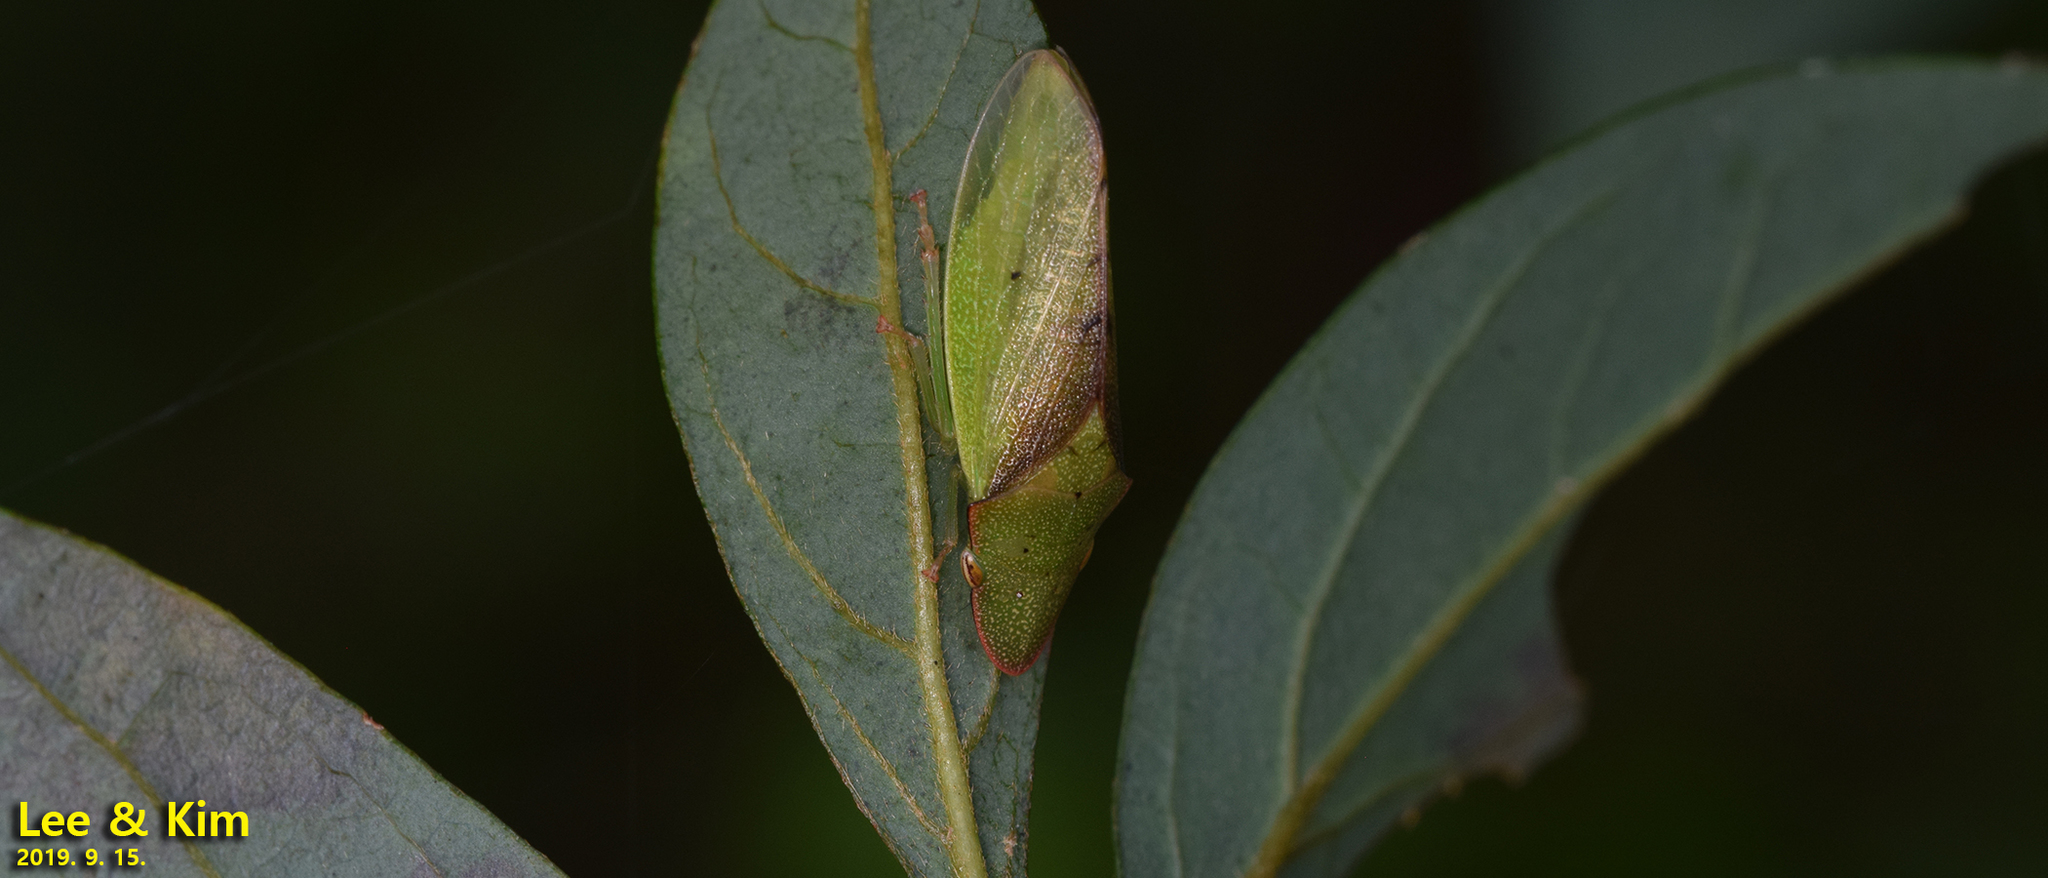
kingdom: Animalia
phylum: Arthropoda
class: Insecta
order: Hemiptera
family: Cicadellidae
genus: Neotituria
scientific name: Neotituria kongosana
